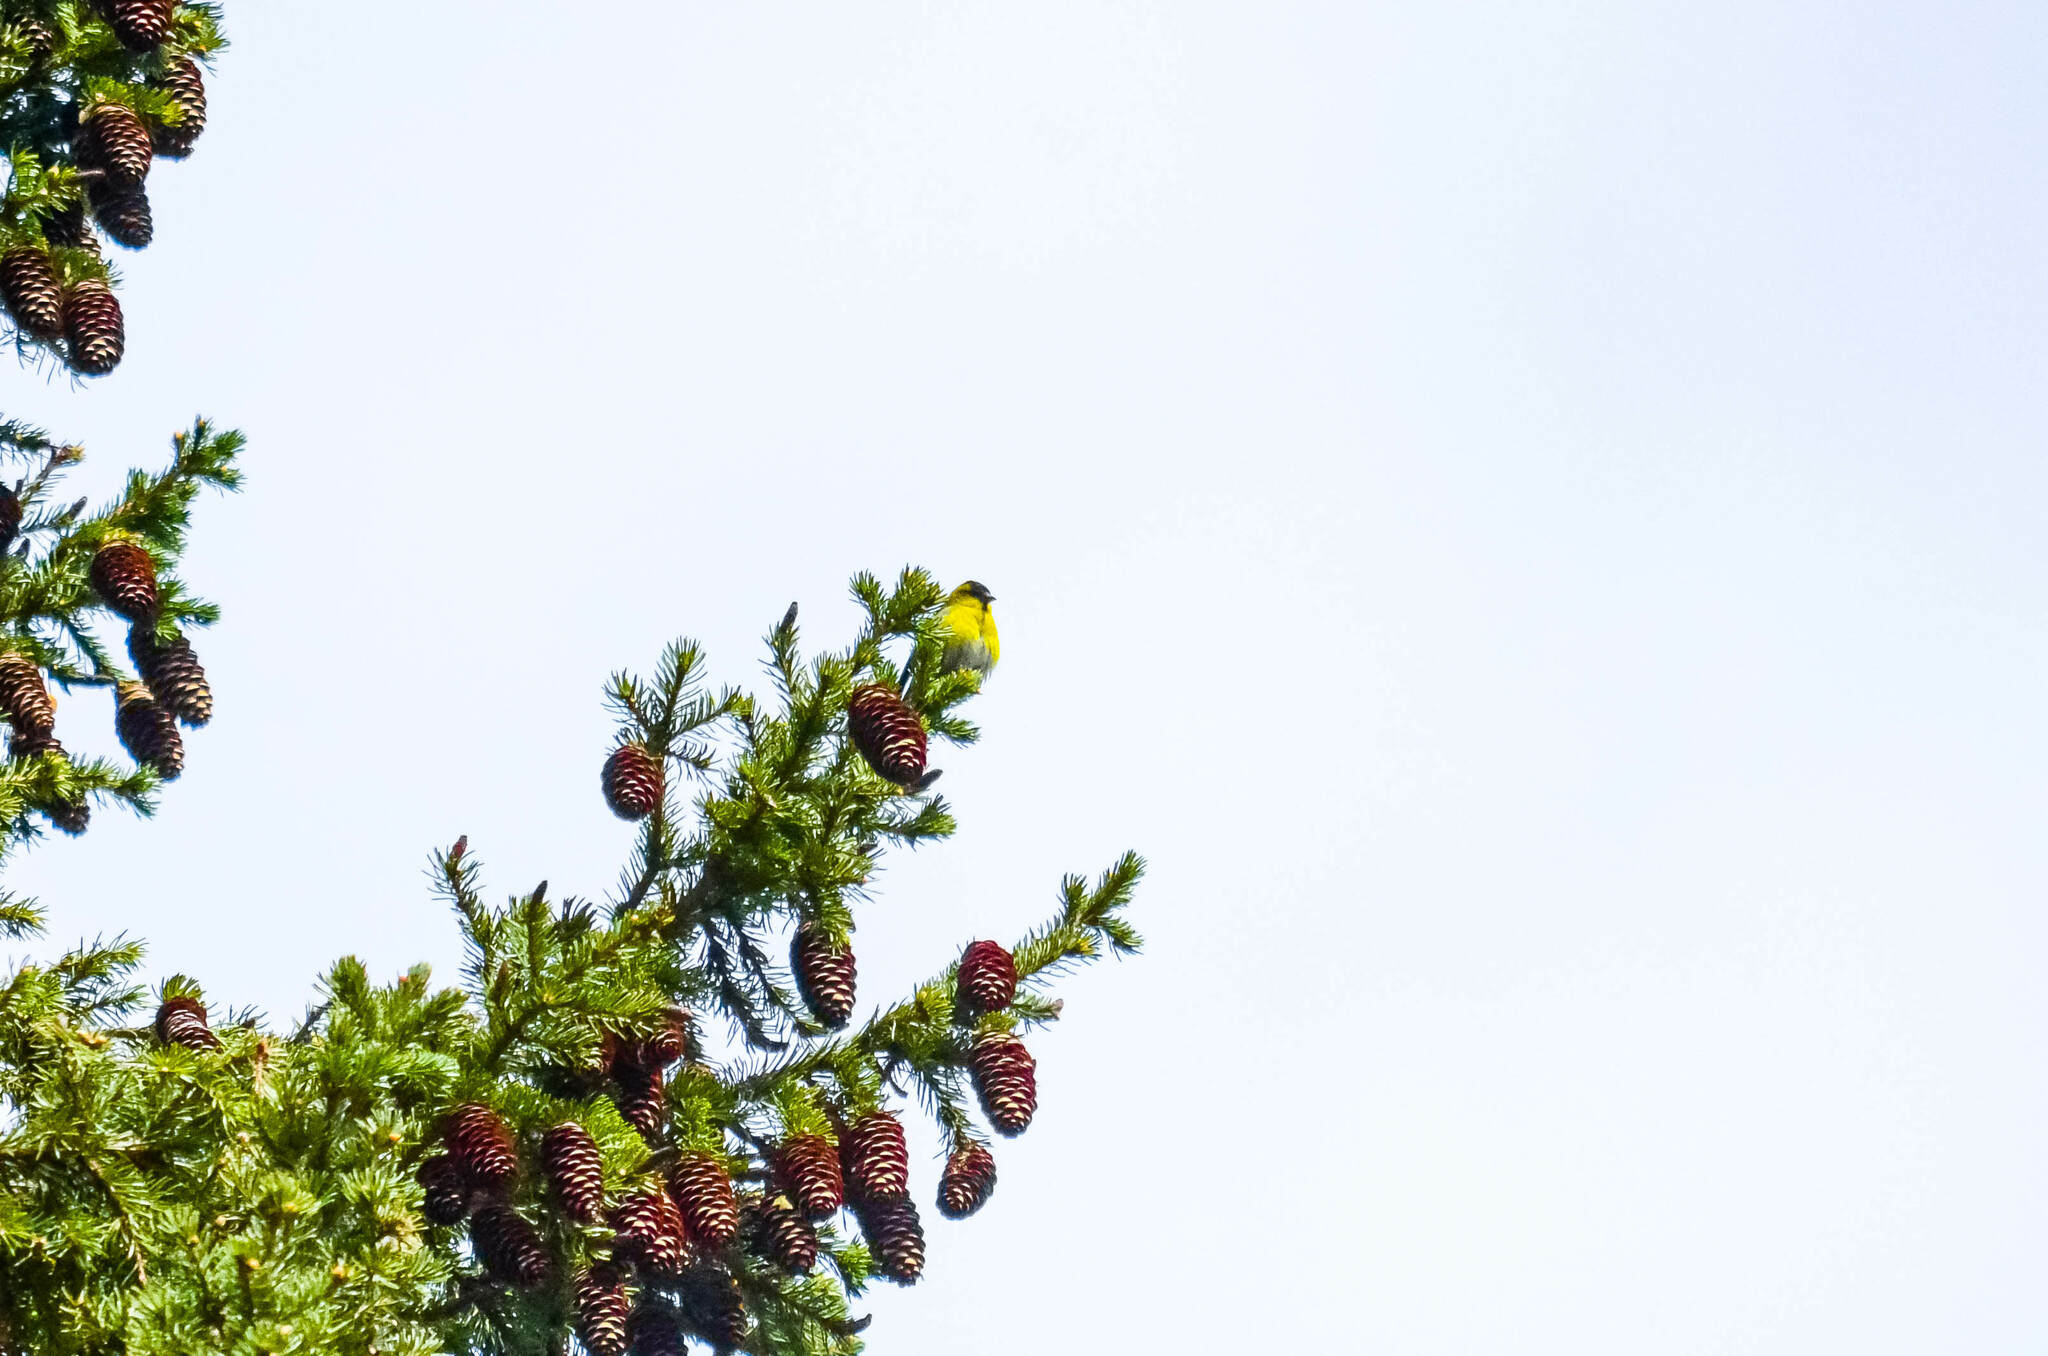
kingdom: Animalia
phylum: Chordata
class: Aves
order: Passeriformes
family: Fringillidae
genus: Spinus
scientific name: Spinus spinus
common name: Eurasian siskin
